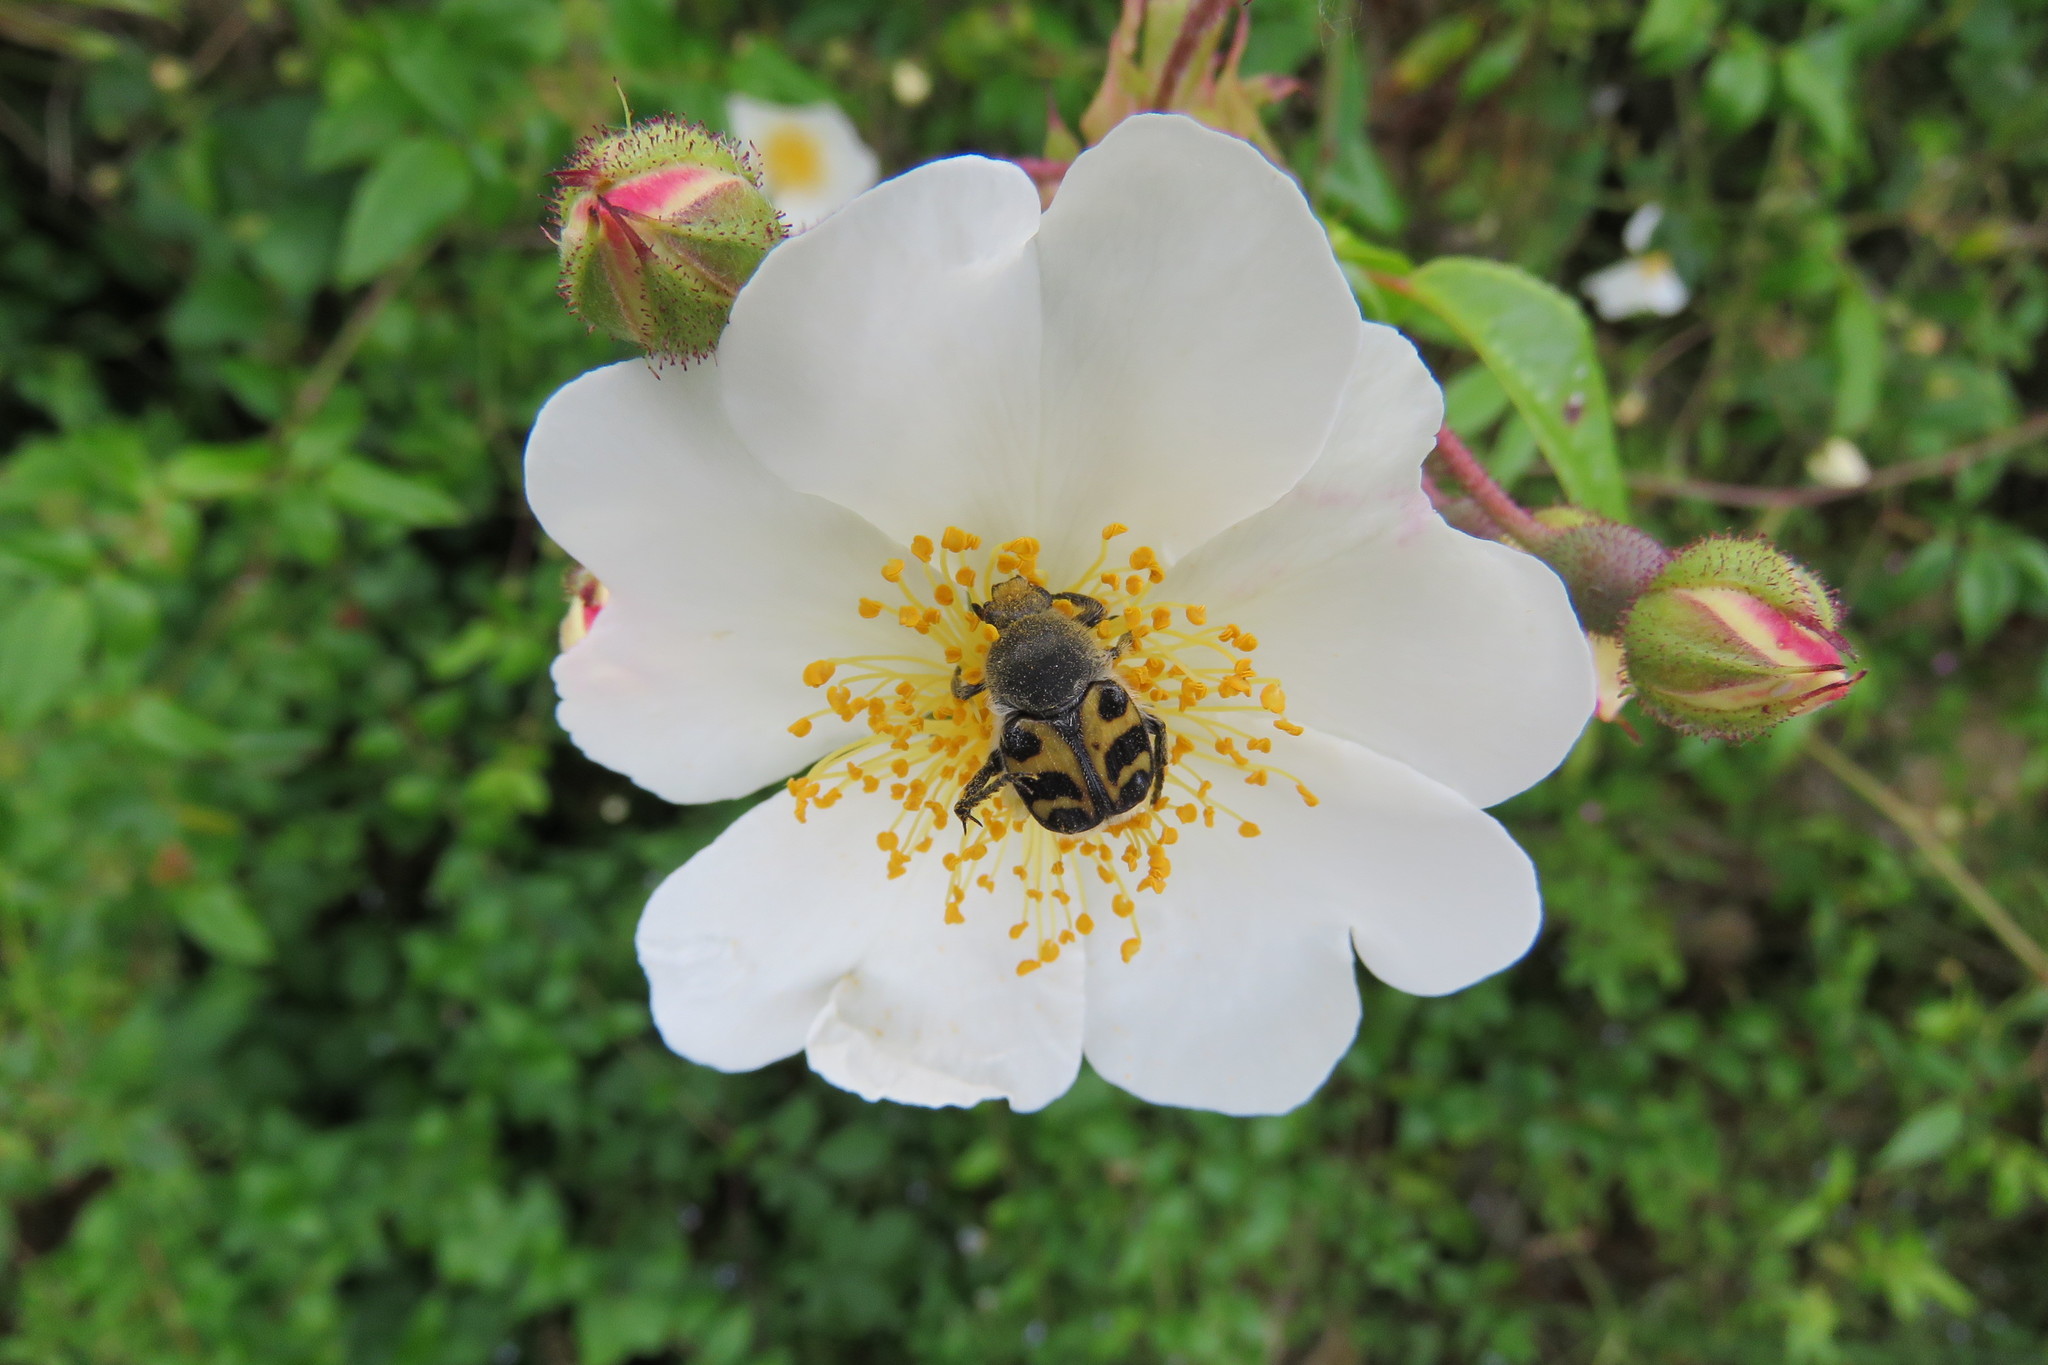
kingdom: Animalia
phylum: Arthropoda
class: Insecta
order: Coleoptera
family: Scarabaeidae
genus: Trichius
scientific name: Trichius gallicus
